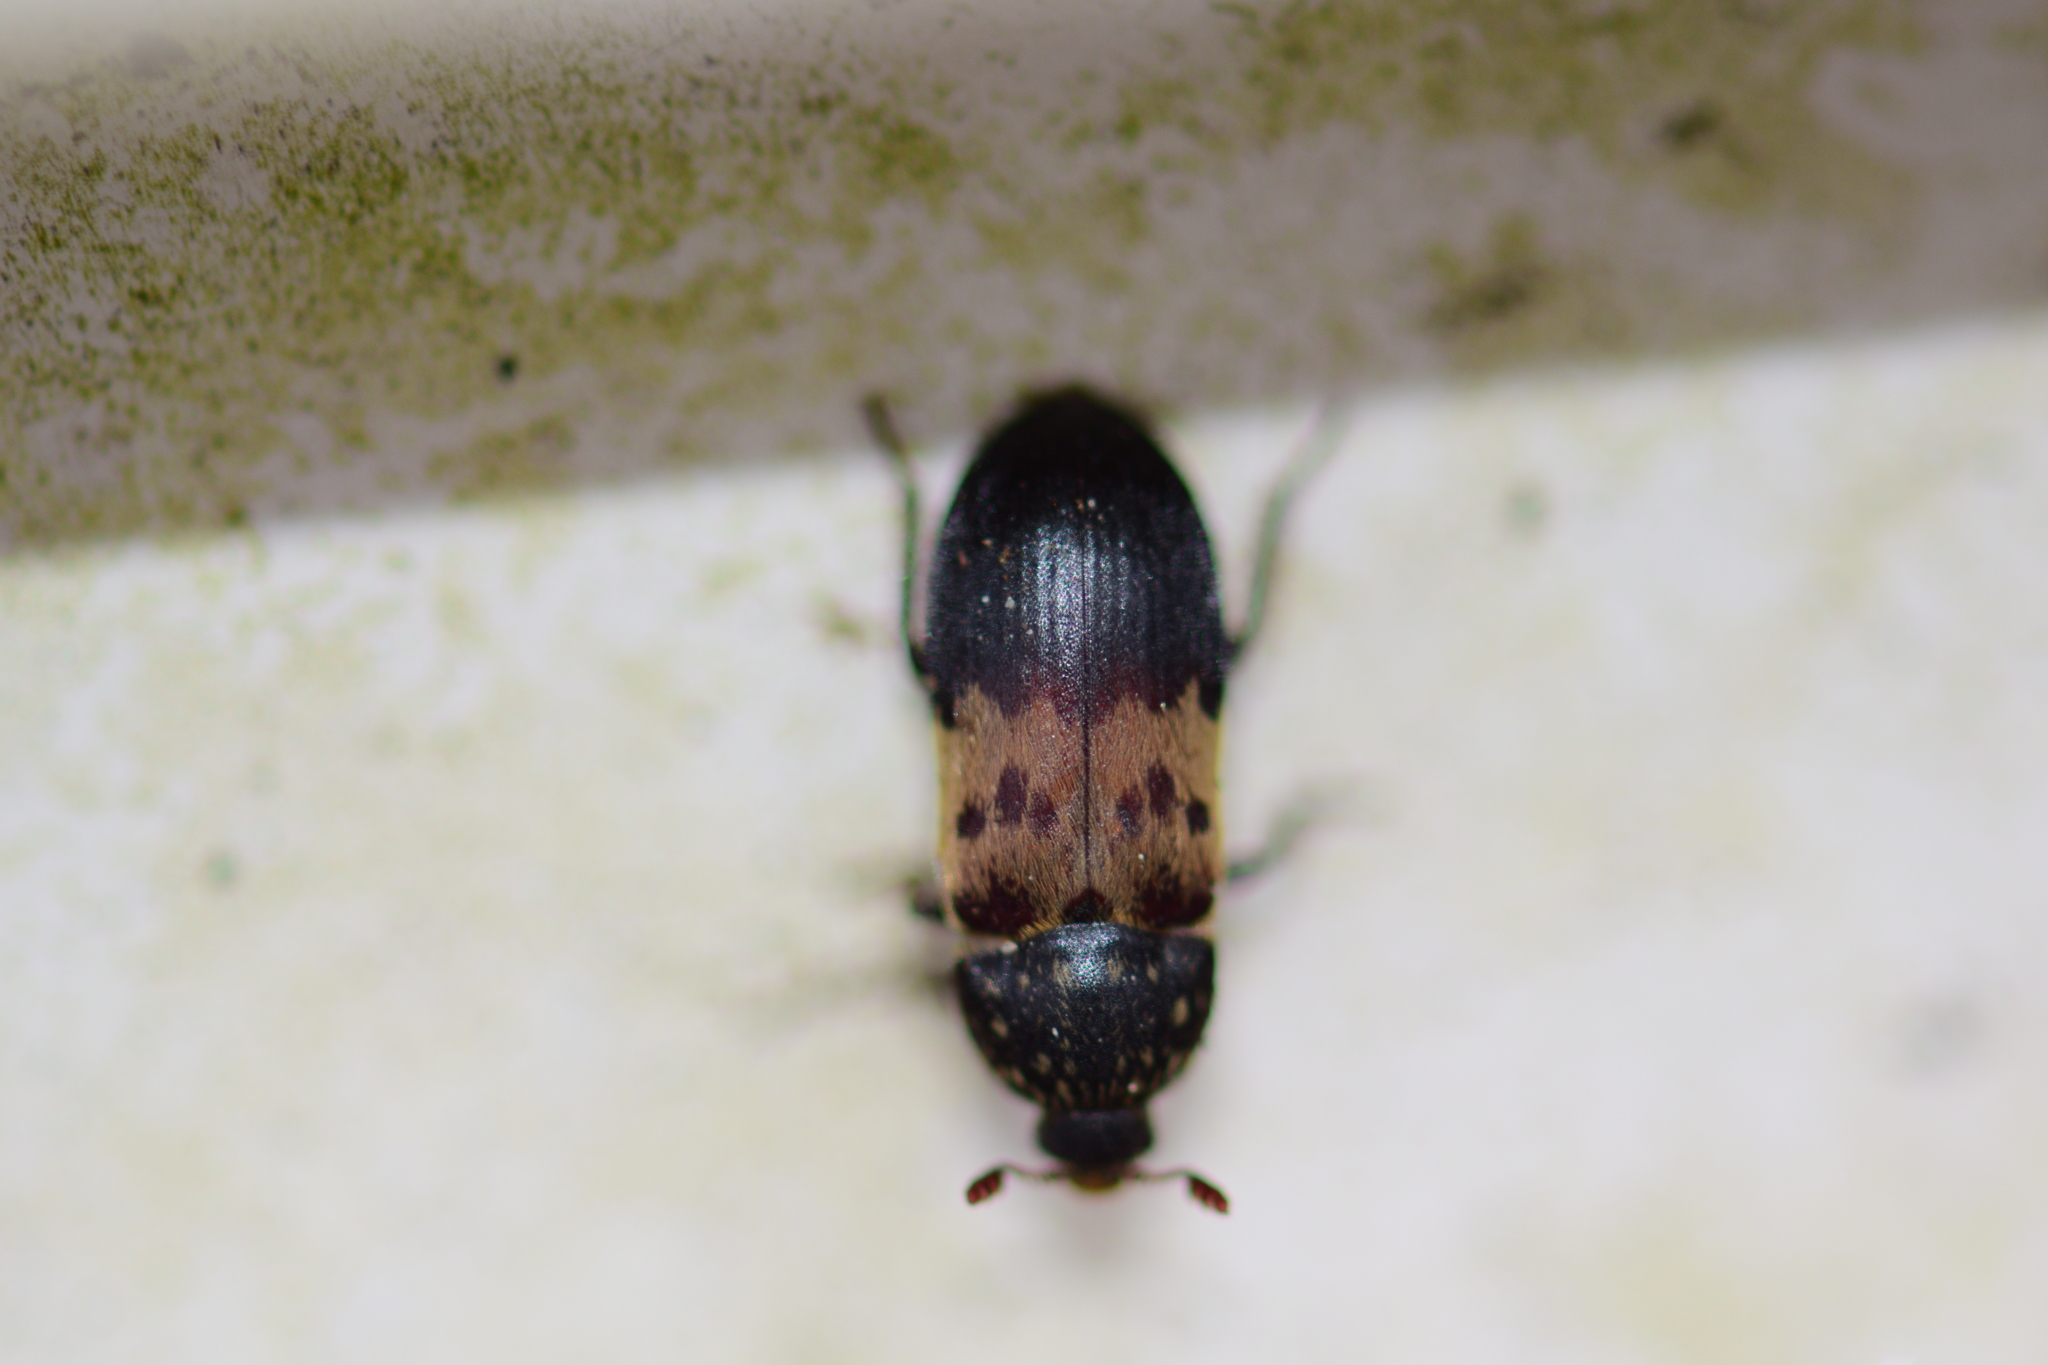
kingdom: Animalia
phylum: Arthropoda
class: Insecta
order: Coleoptera
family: Dermestidae
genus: Dermestes
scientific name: Dermestes lardarius
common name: Larder beetle
